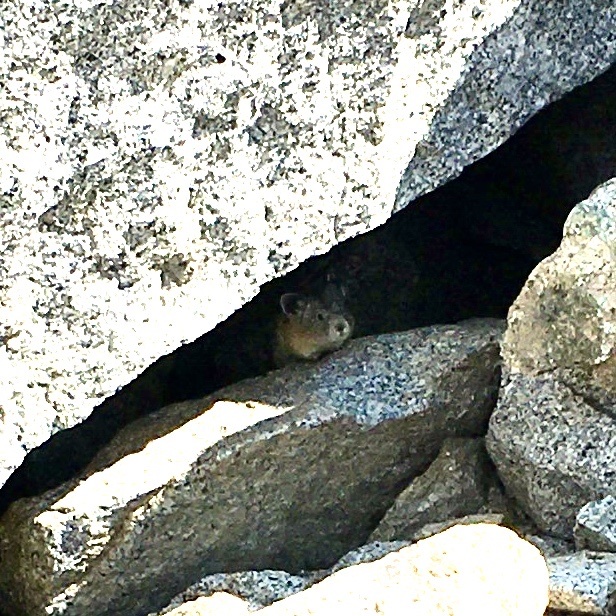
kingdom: Animalia
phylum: Chordata
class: Mammalia
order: Lagomorpha
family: Ochotonidae
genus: Ochotona
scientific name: Ochotona princeps
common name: American pika
